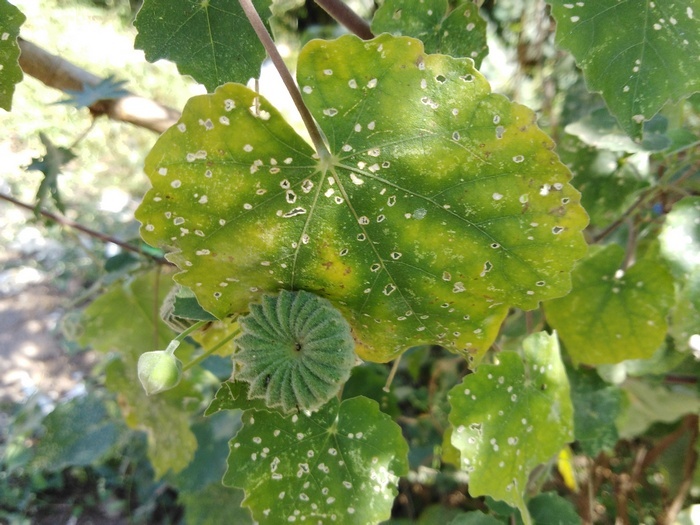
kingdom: Plantae
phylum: Tracheophyta
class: Magnoliopsida
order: Malvales
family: Malvaceae
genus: Abutilon
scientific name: Abutilon indicum
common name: Indian abutilon
